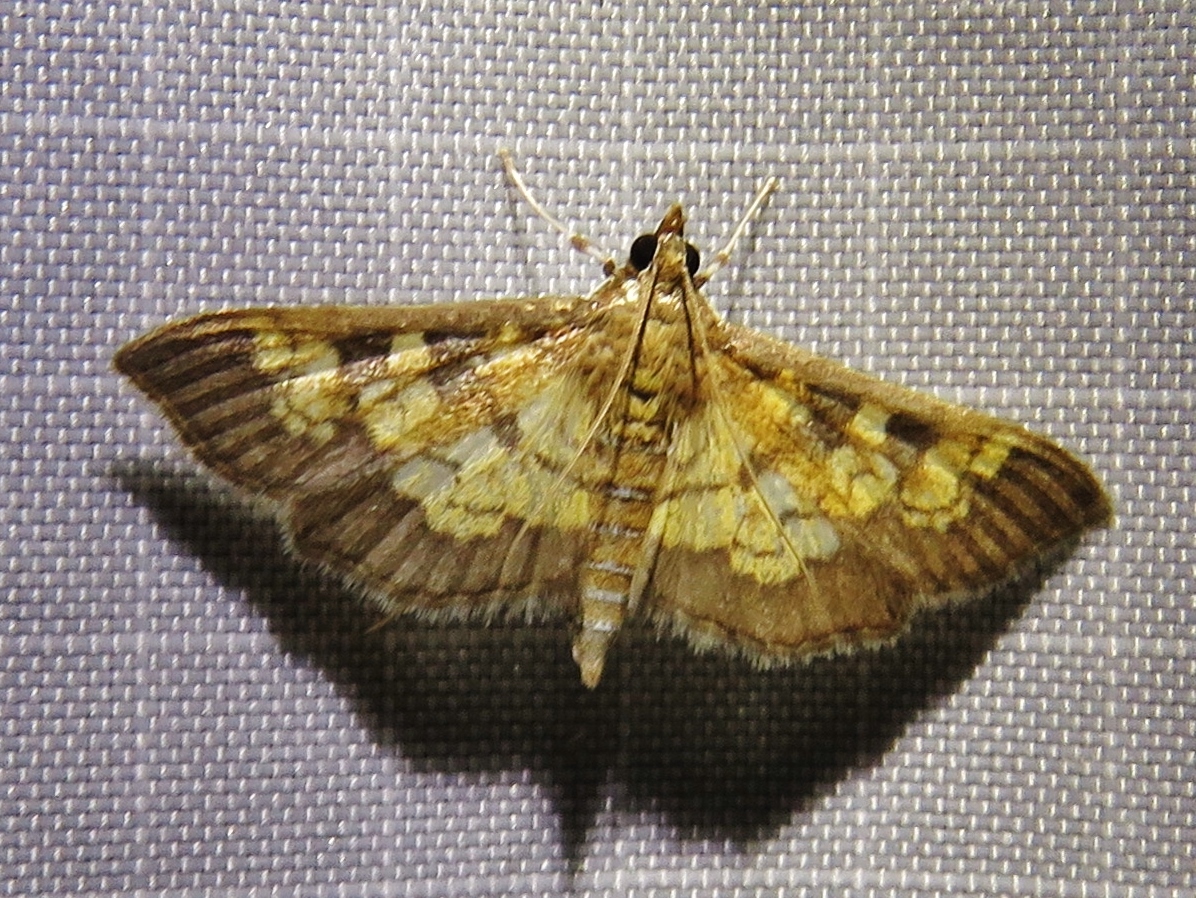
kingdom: Animalia
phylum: Arthropoda
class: Insecta
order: Lepidoptera
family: Crambidae
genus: Epipagis
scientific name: Epipagis adipaloides
